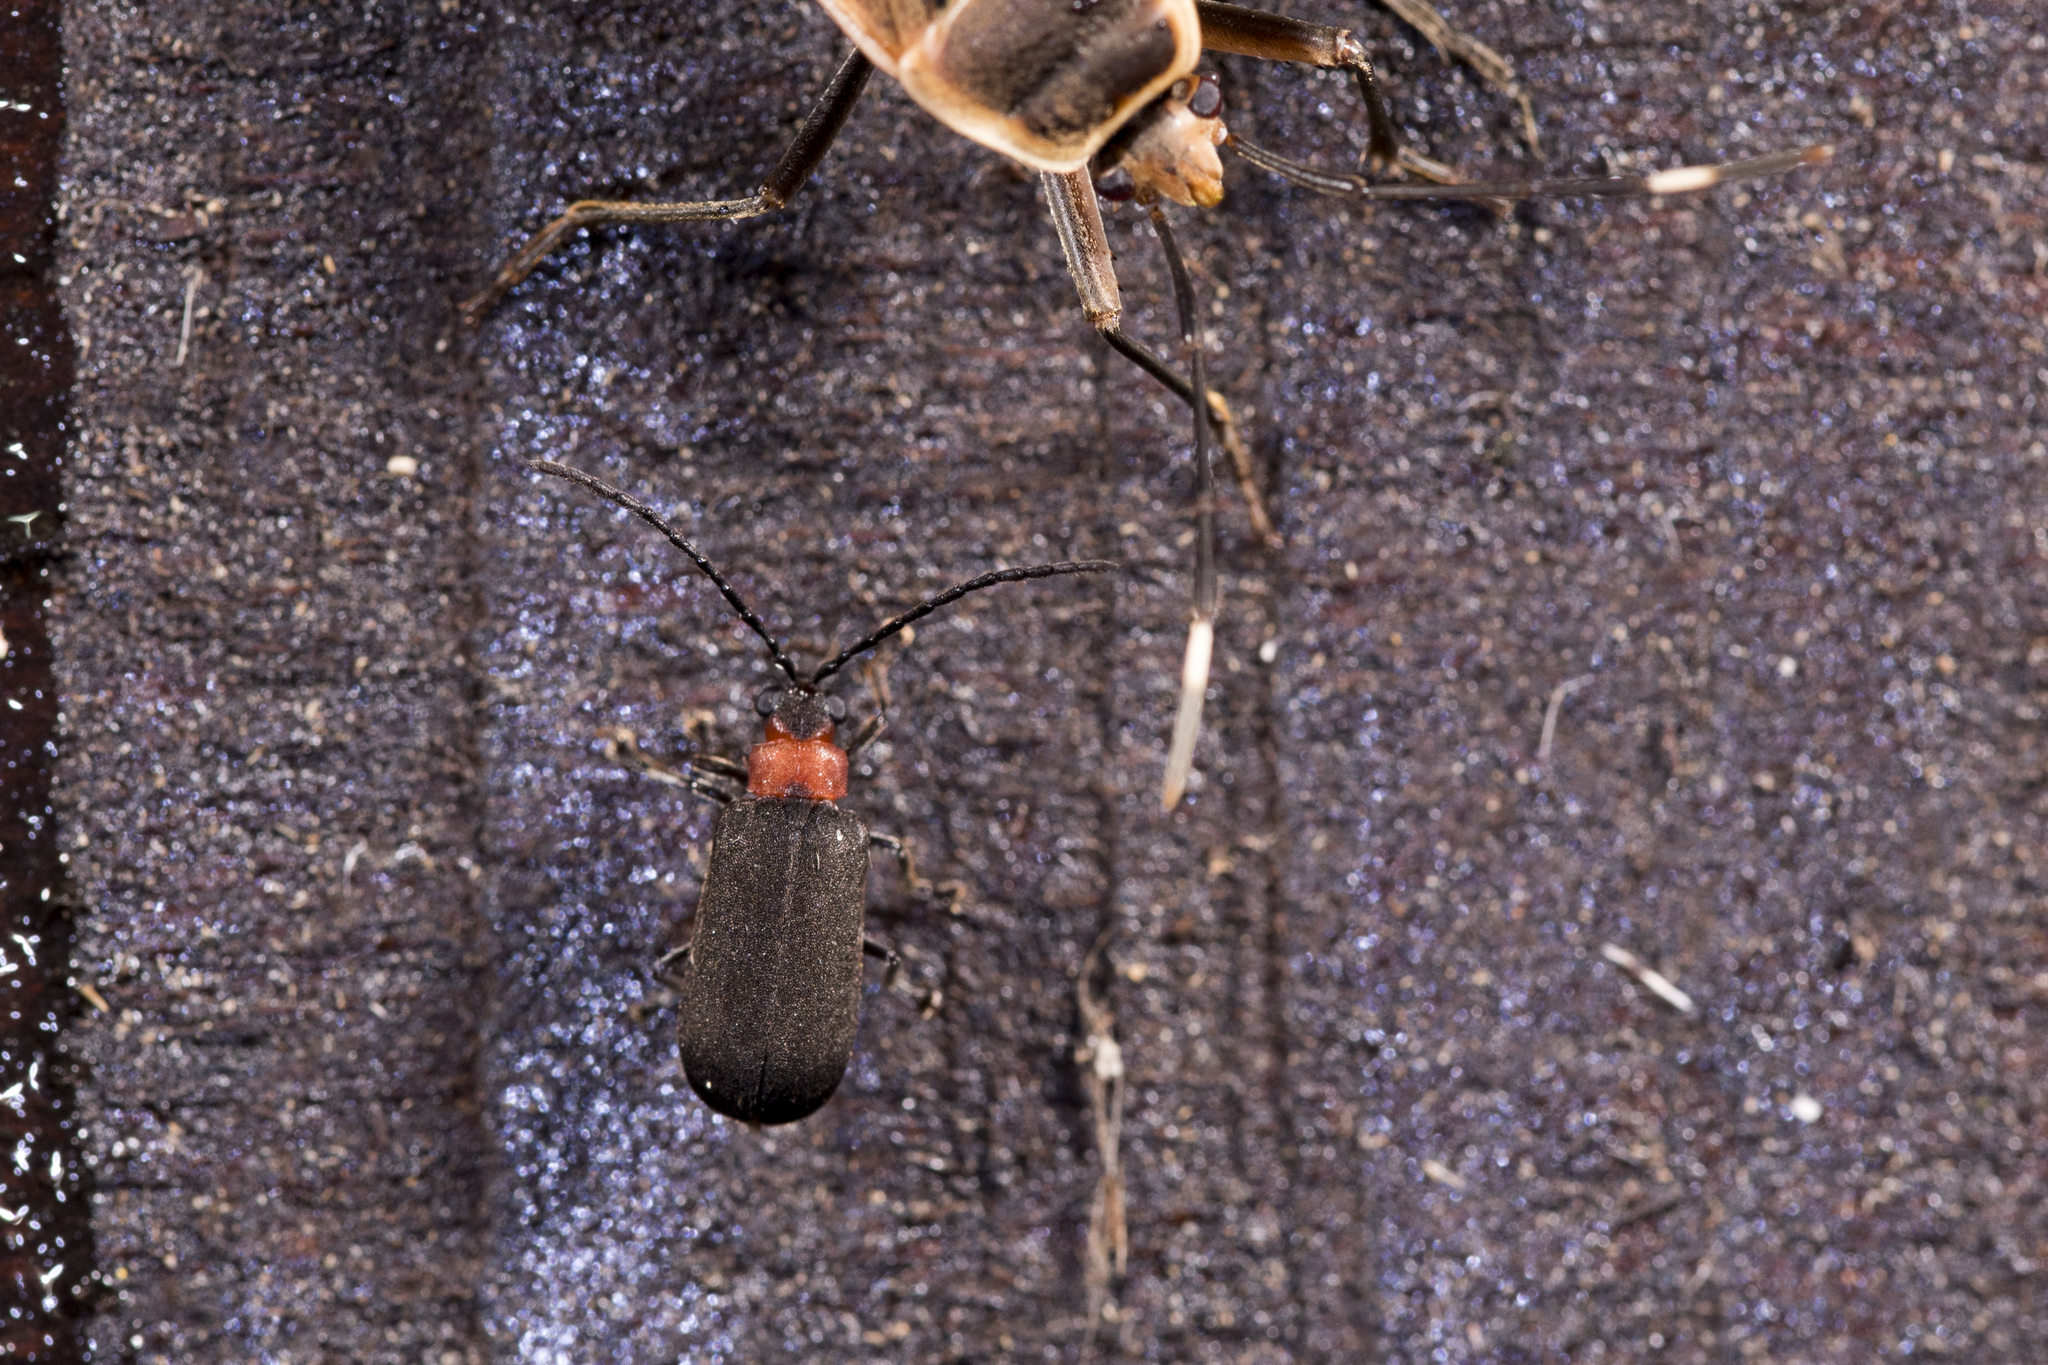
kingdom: Animalia
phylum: Arthropoda
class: Insecta
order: Coleoptera
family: Chrysomelidae
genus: Atysa
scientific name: Atysa collaris
